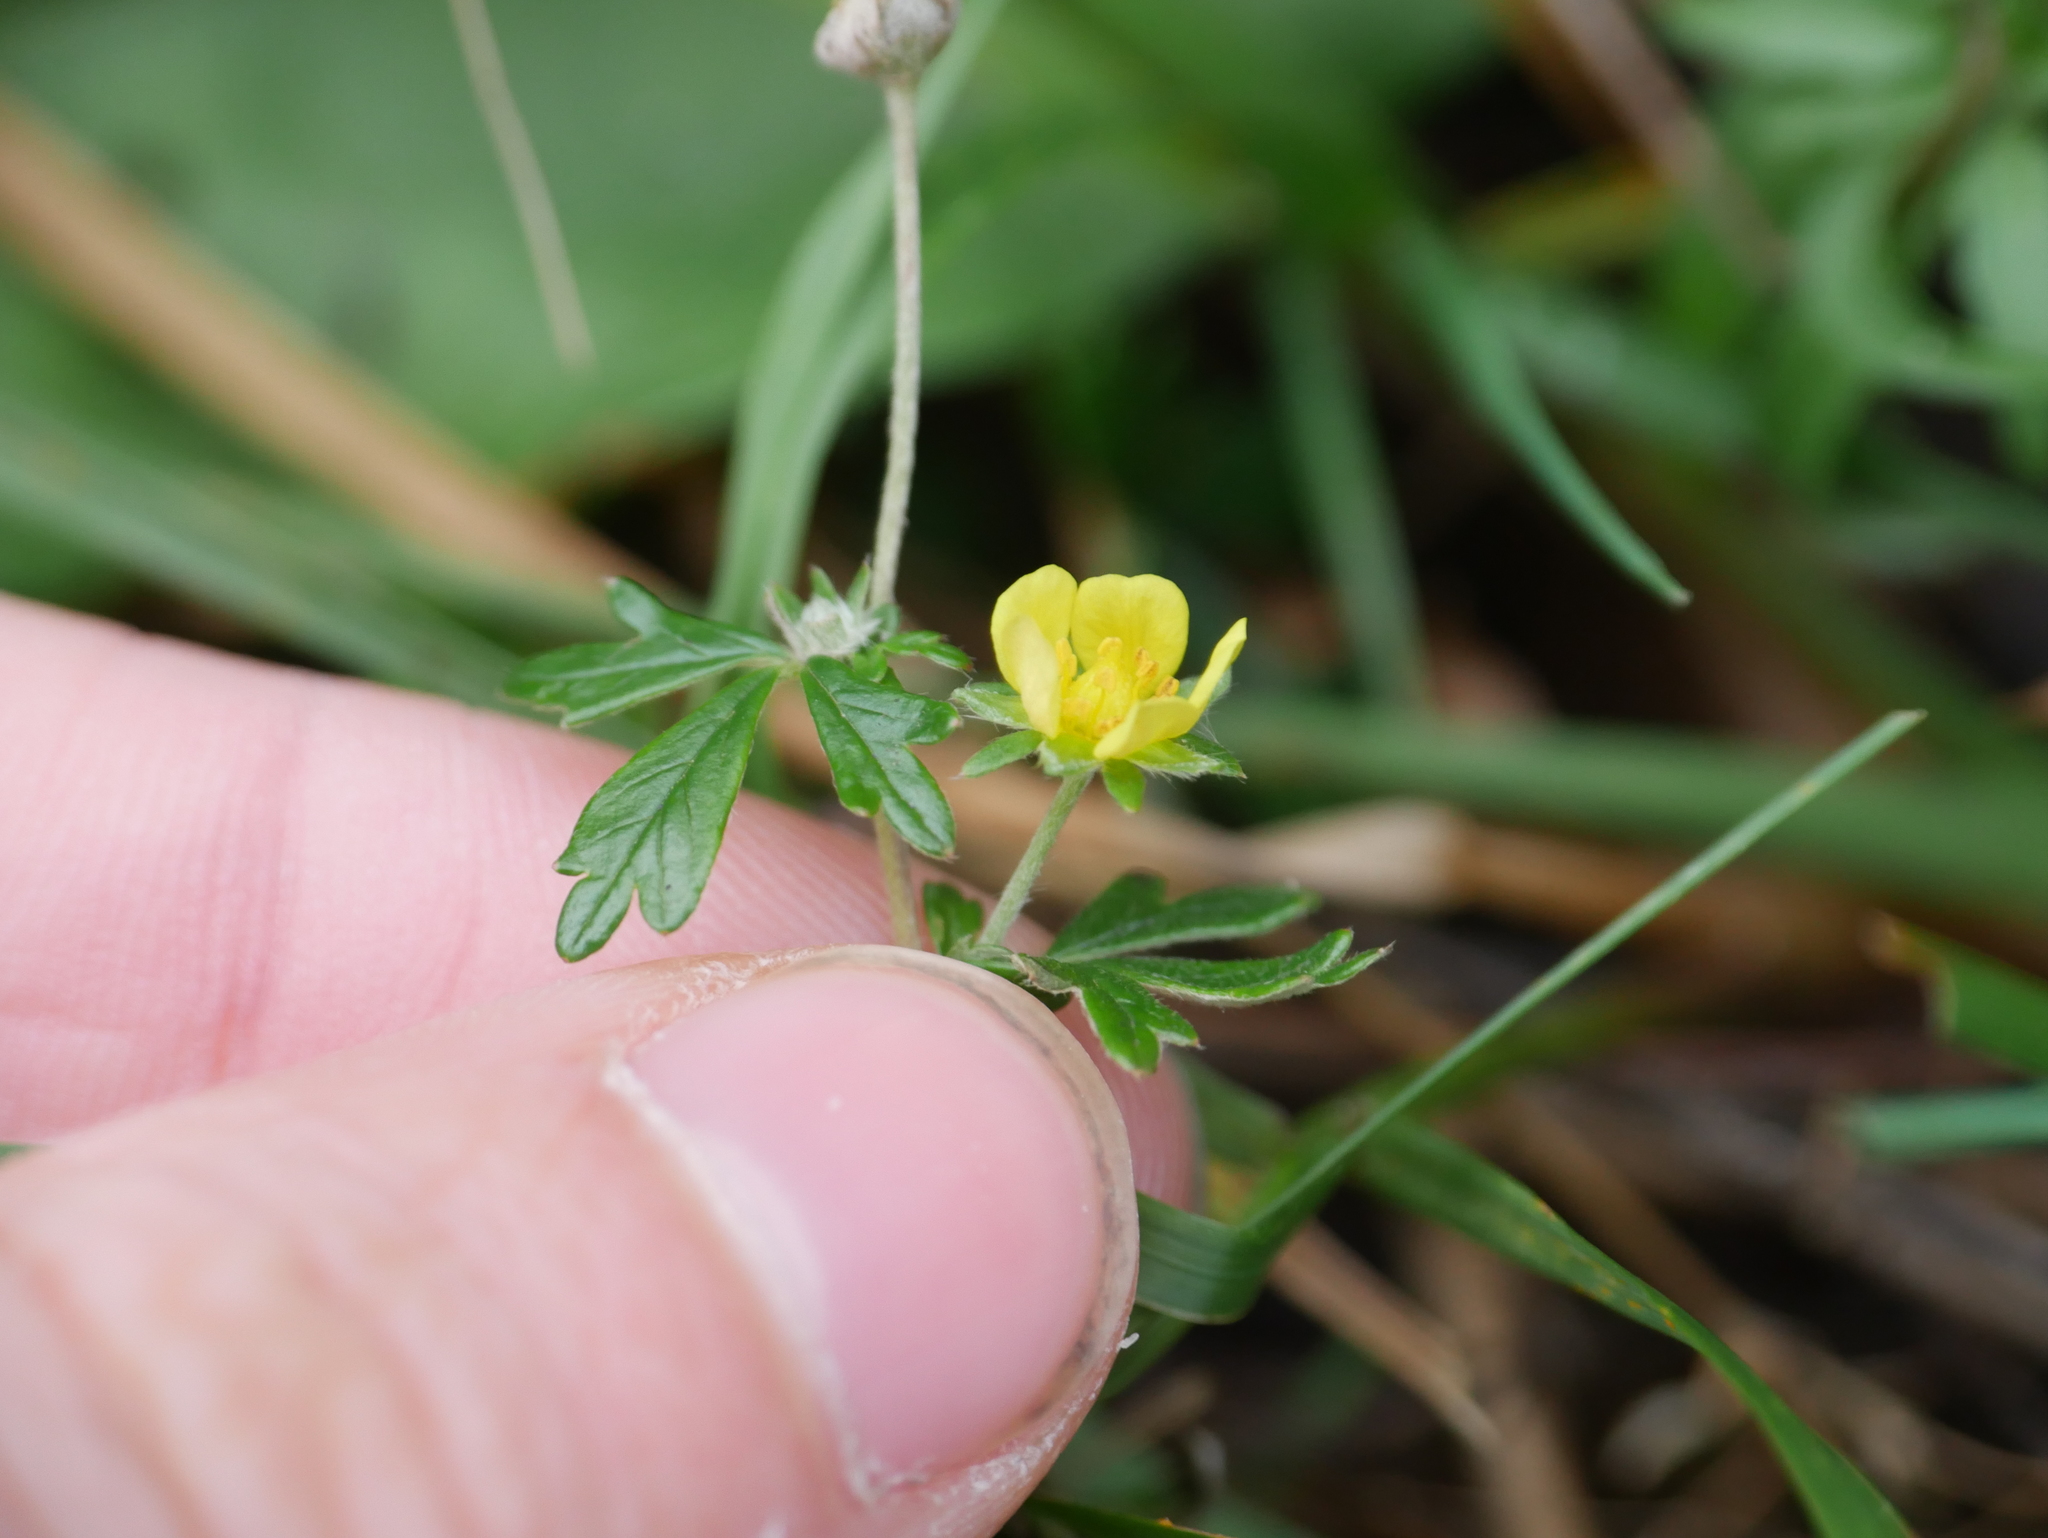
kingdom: Plantae
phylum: Tracheophyta
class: Magnoliopsida
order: Rosales
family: Rosaceae
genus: Potentilla
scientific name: Potentilla argentea
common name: Hoary cinquefoil
